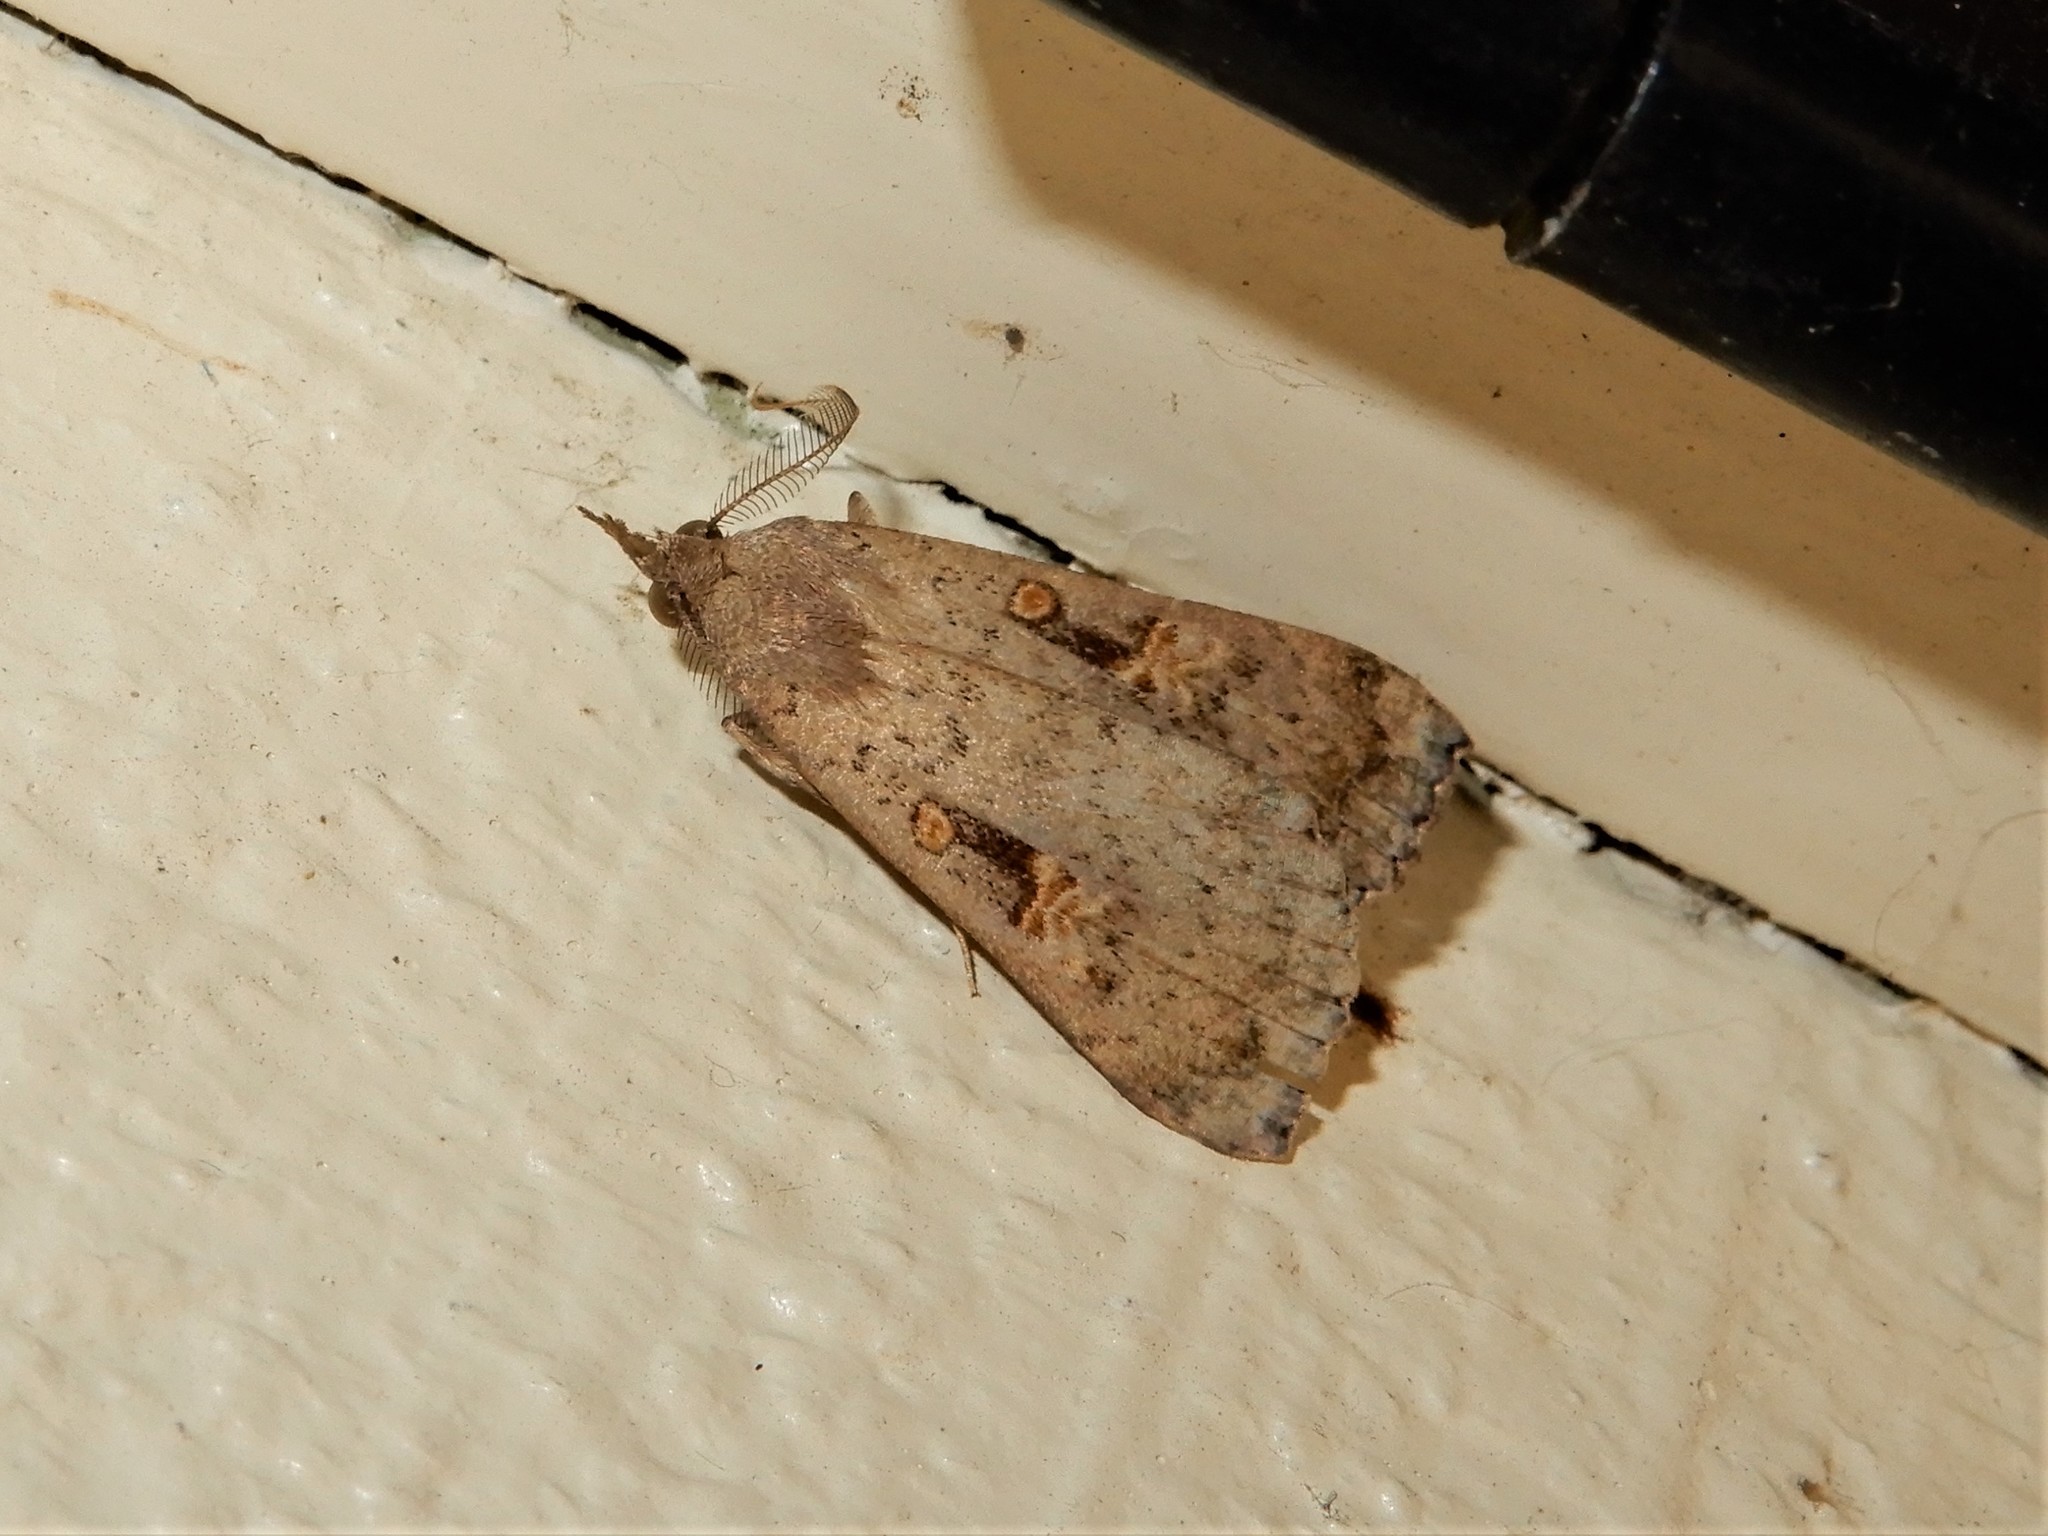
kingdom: Animalia
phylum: Arthropoda
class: Insecta
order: Lepidoptera
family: Erebidae
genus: Rhapsa
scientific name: Rhapsa scotosialis
